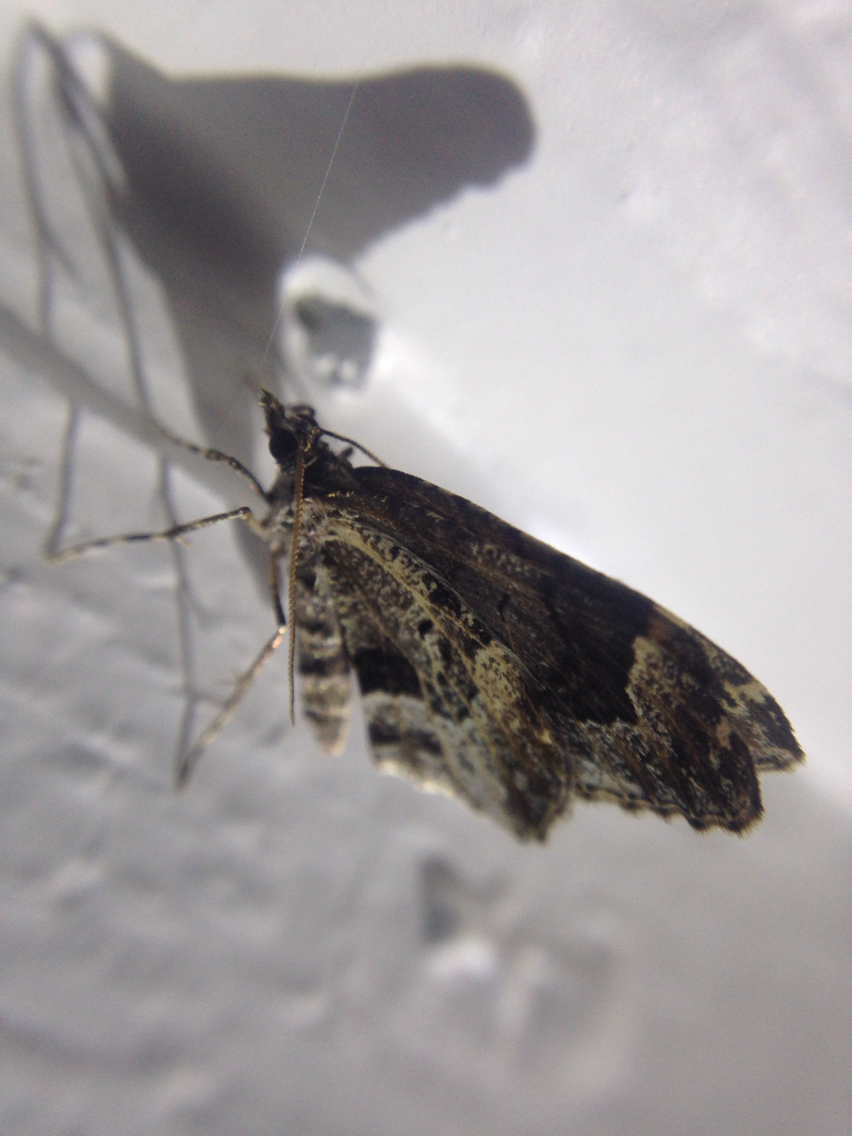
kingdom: Animalia
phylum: Arthropoda
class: Insecta
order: Lepidoptera
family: Geometridae
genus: Ceratodalia
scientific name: Ceratodalia gueneata
